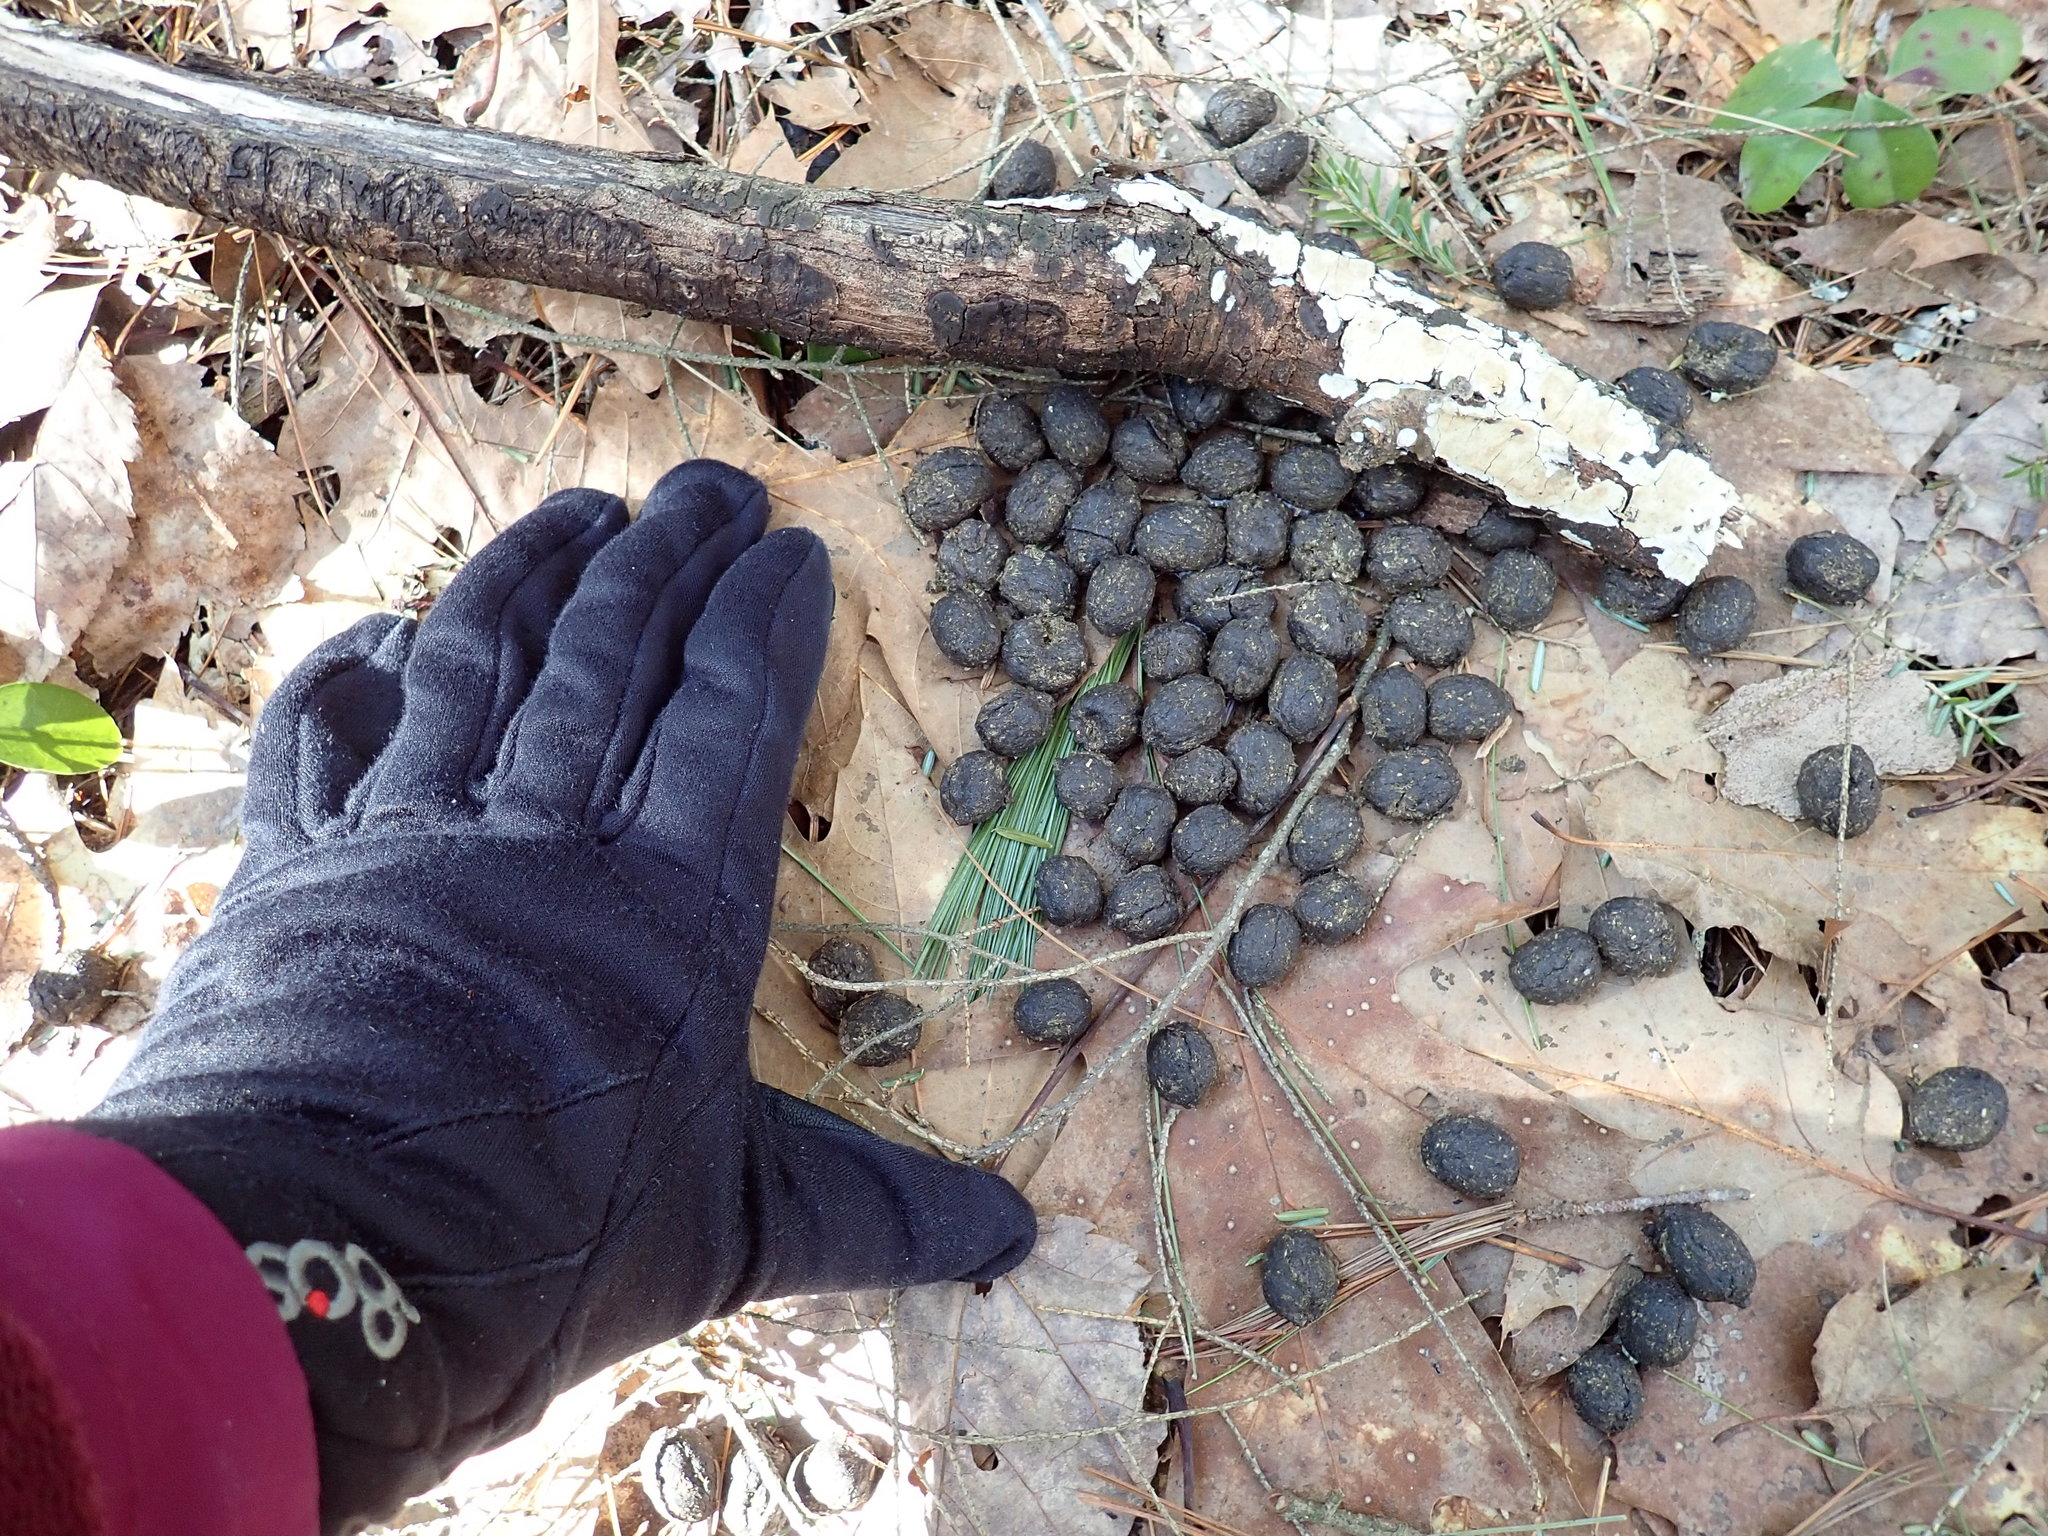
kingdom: Animalia
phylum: Chordata
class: Mammalia
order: Artiodactyla
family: Cervidae
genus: Alces
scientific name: Alces alces
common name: Moose
